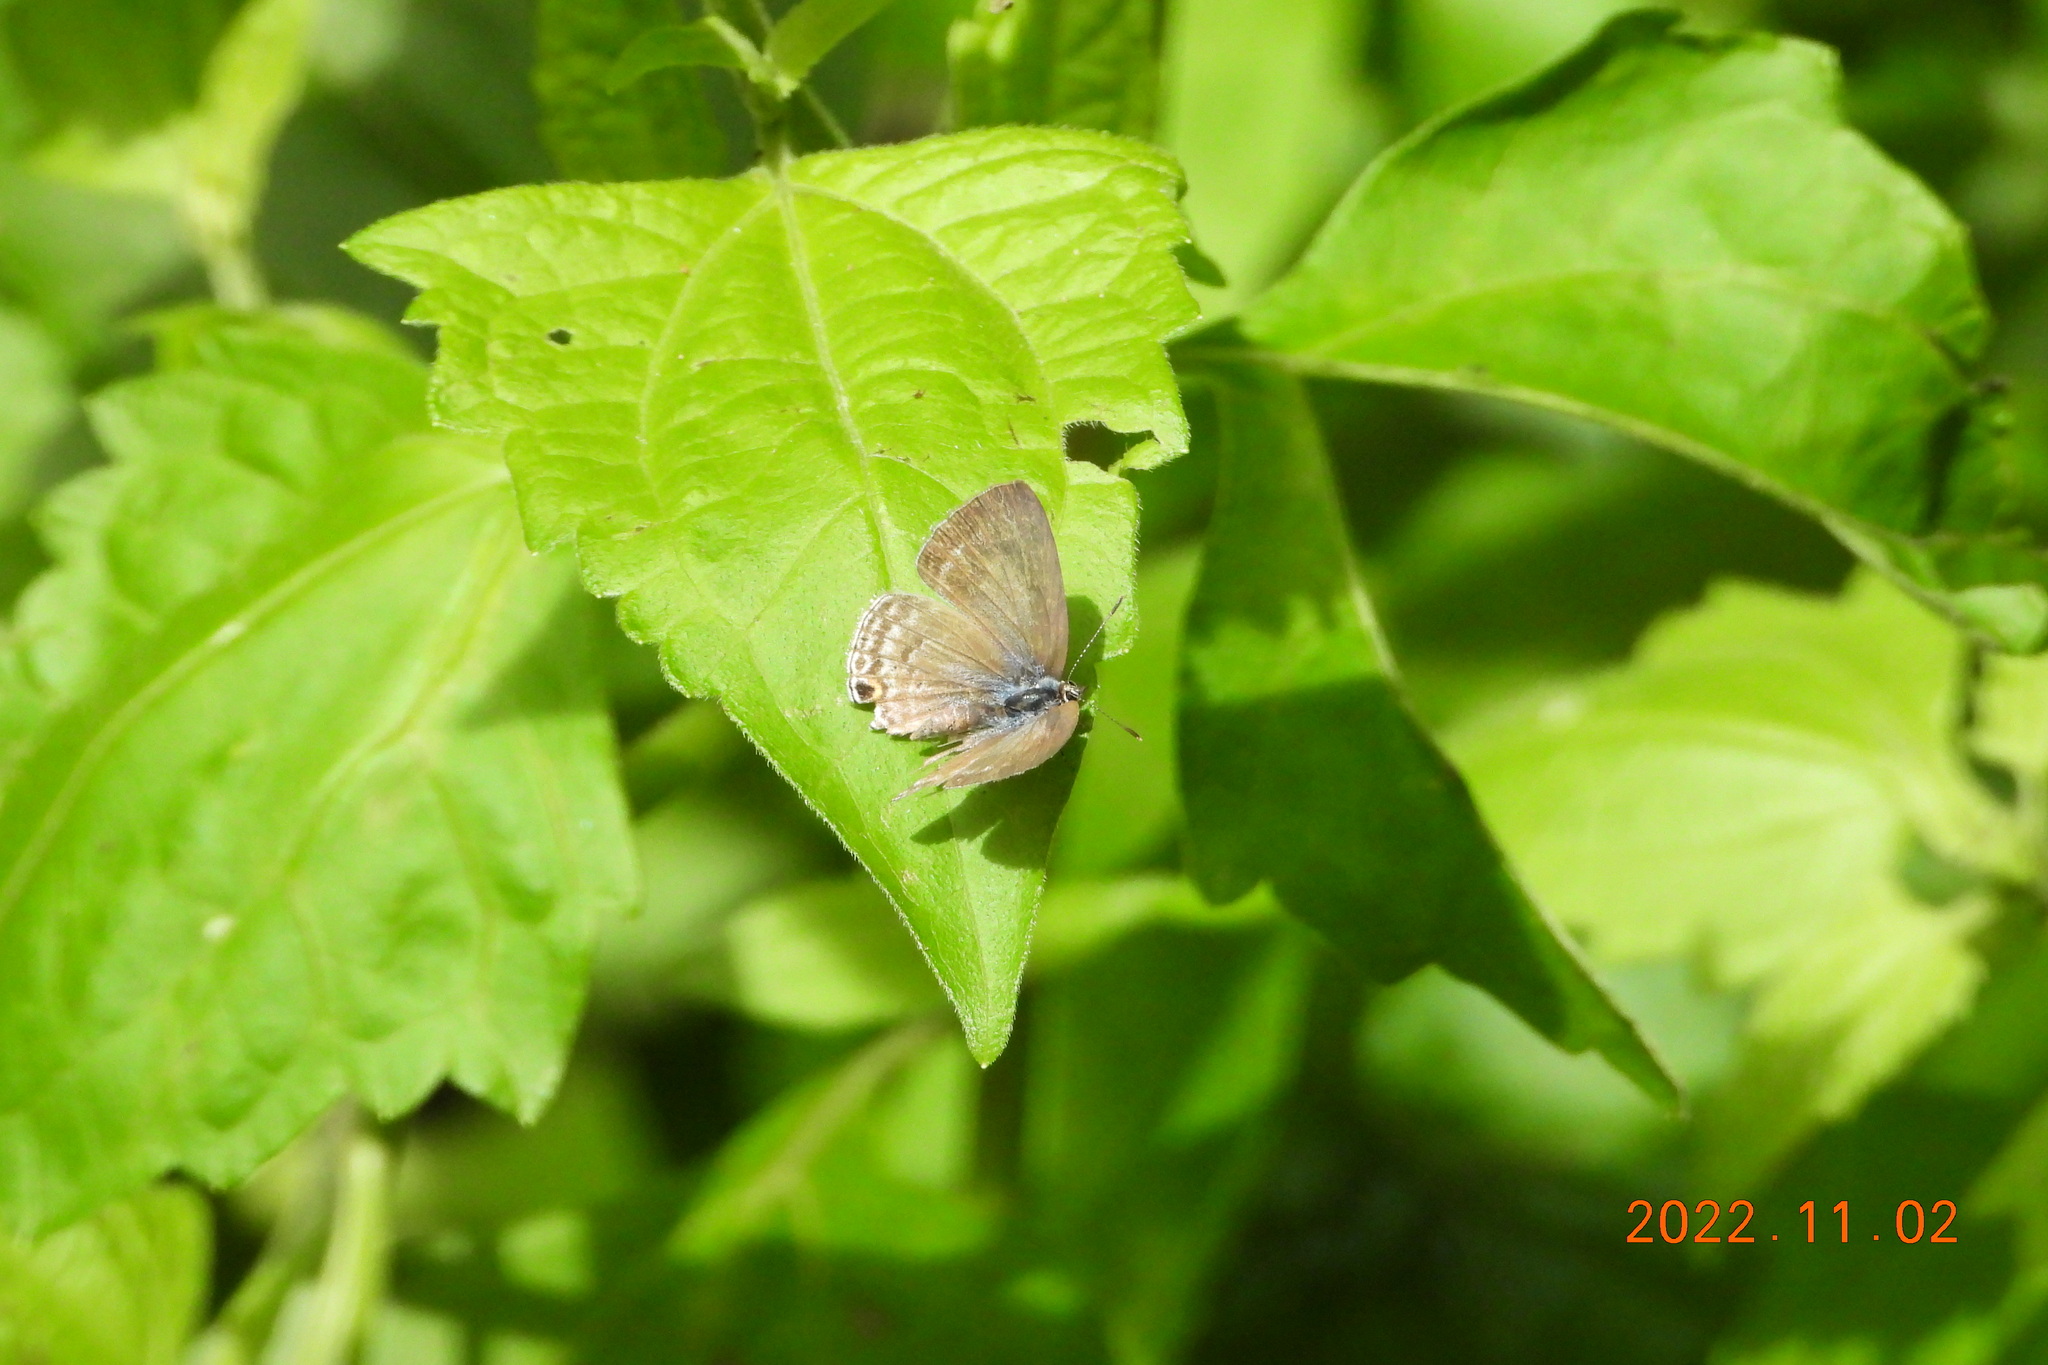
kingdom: Animalia
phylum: Arthropoda
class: Insecta
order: Lepidoptera
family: Lycaenidae
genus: Lampides
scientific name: Lampides boeticus
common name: Long-tailed blue
